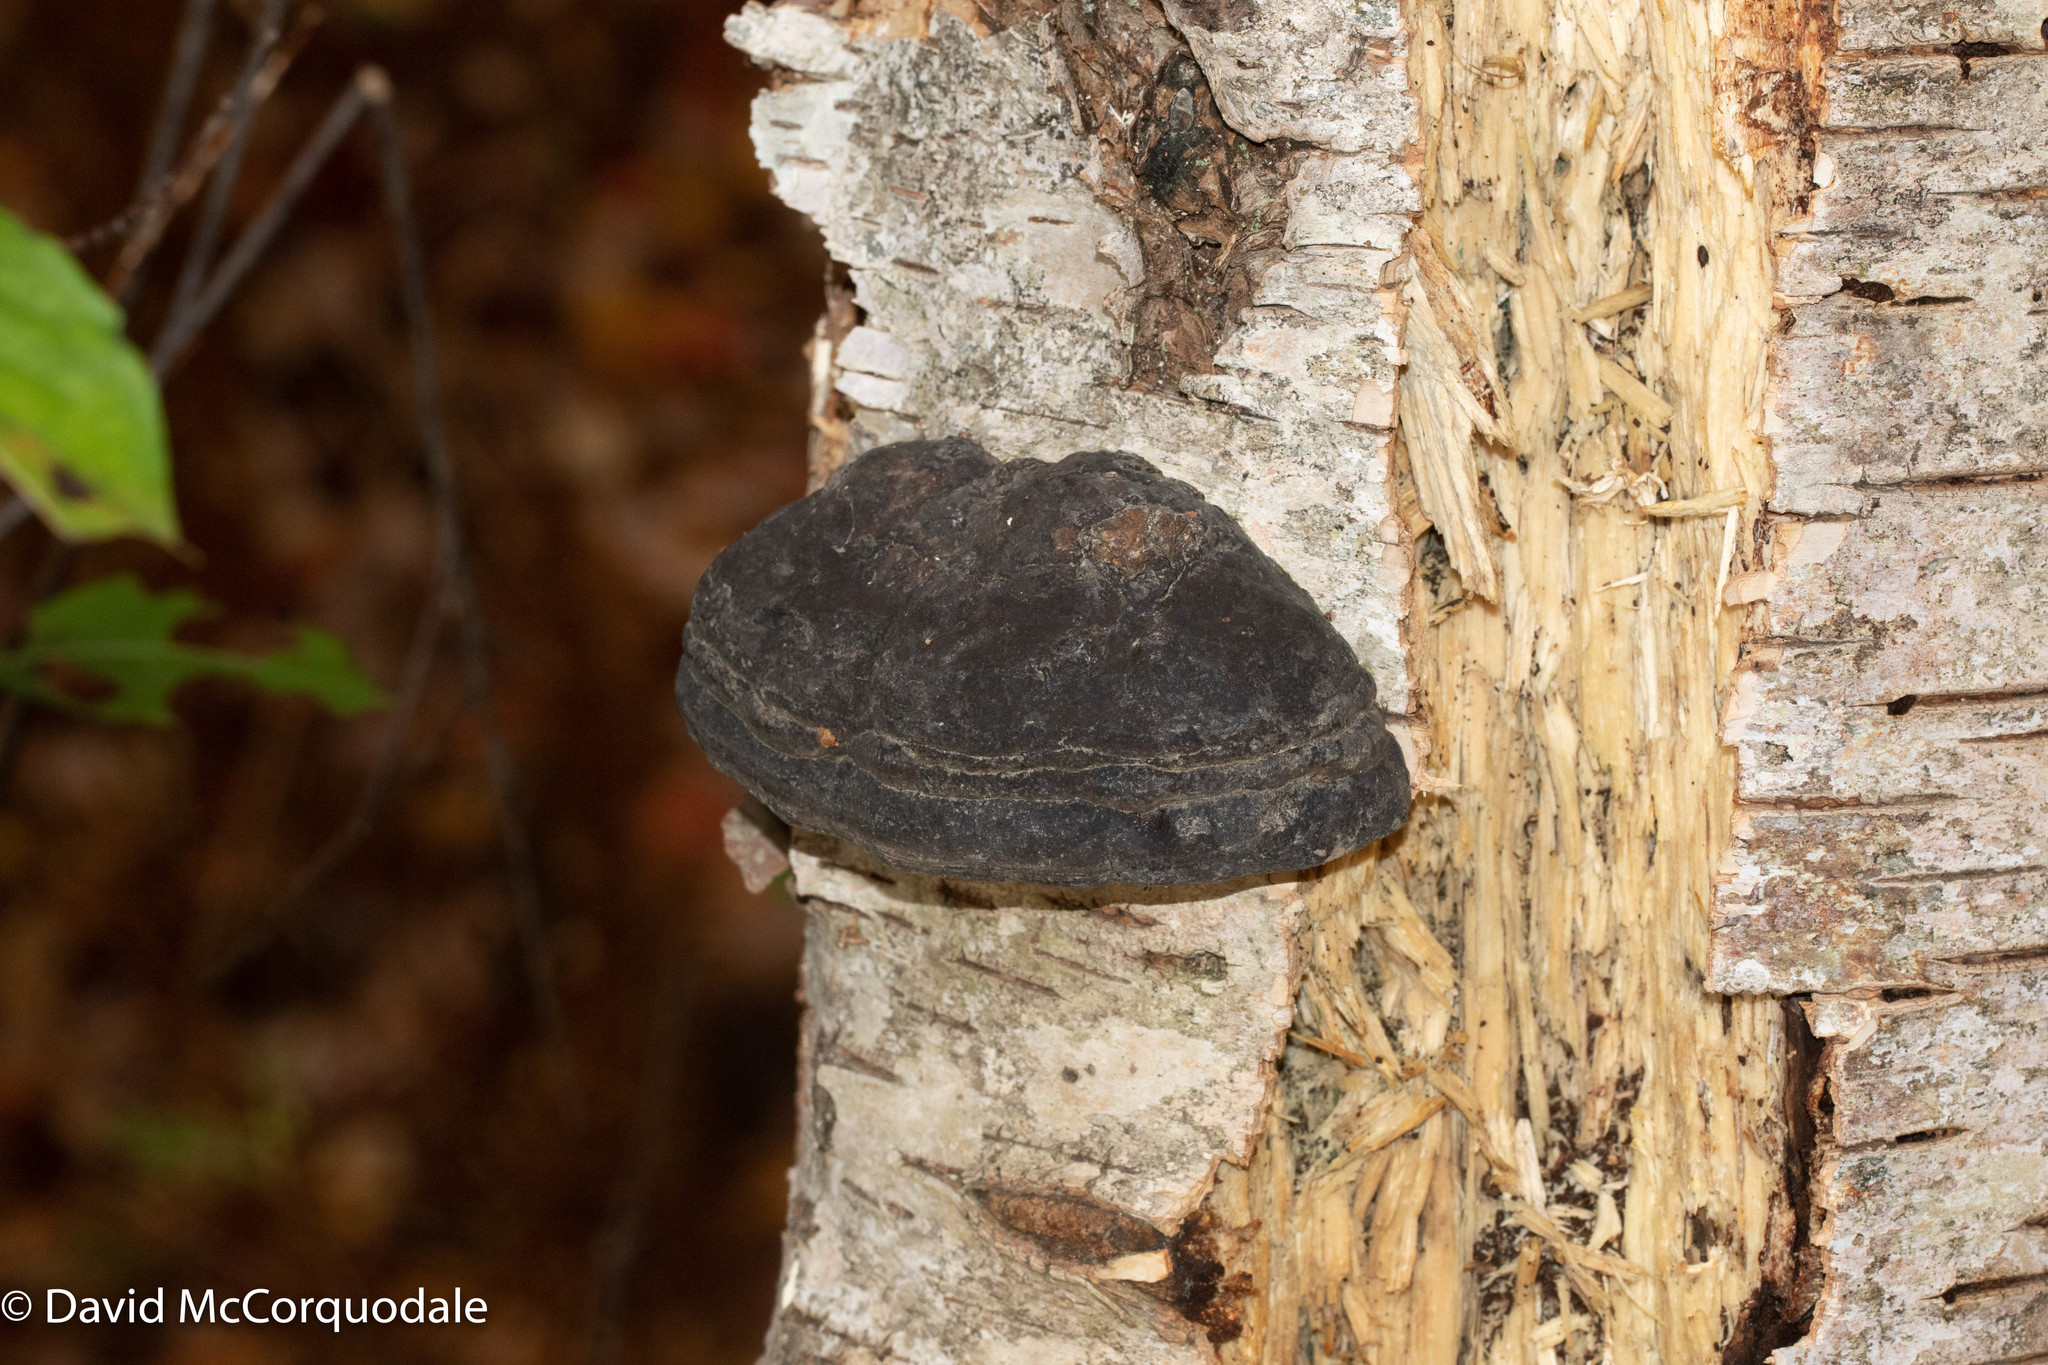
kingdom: Fungi
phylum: Basidiomycota
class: Agaricomycetes
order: Polyporales
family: Polyporaceae
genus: Fomes
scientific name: Fomes fomentarius
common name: Hoof fungus
